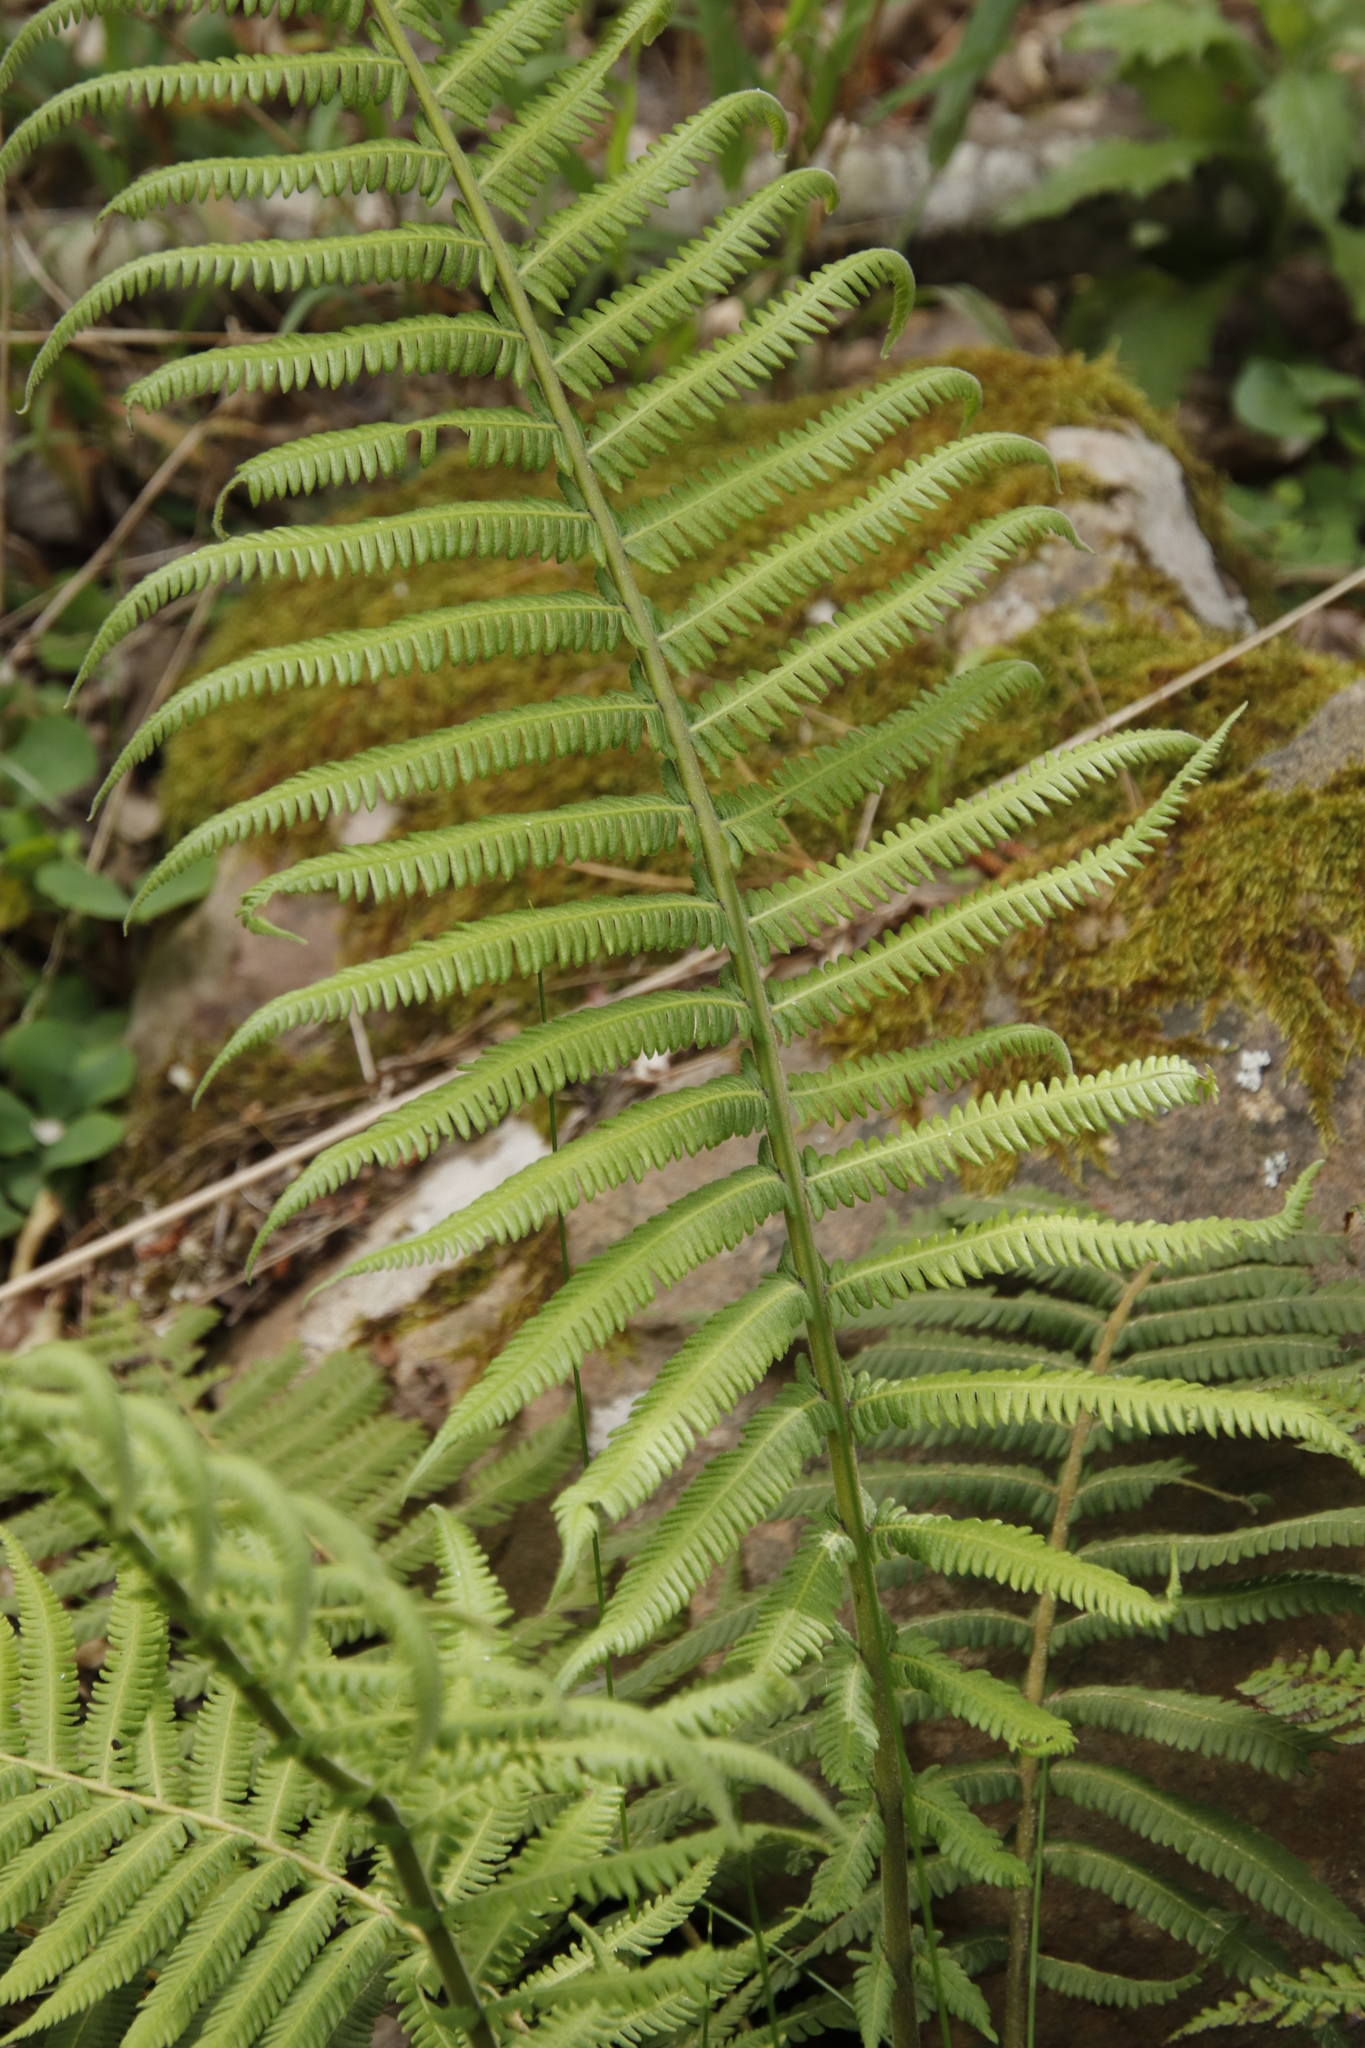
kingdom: Plantae
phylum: Tracheophyta
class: Polypodiopsida
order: Polypodiales
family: Thelypteridaceae
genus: Amauropelta
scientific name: Amauropelta bergiana
